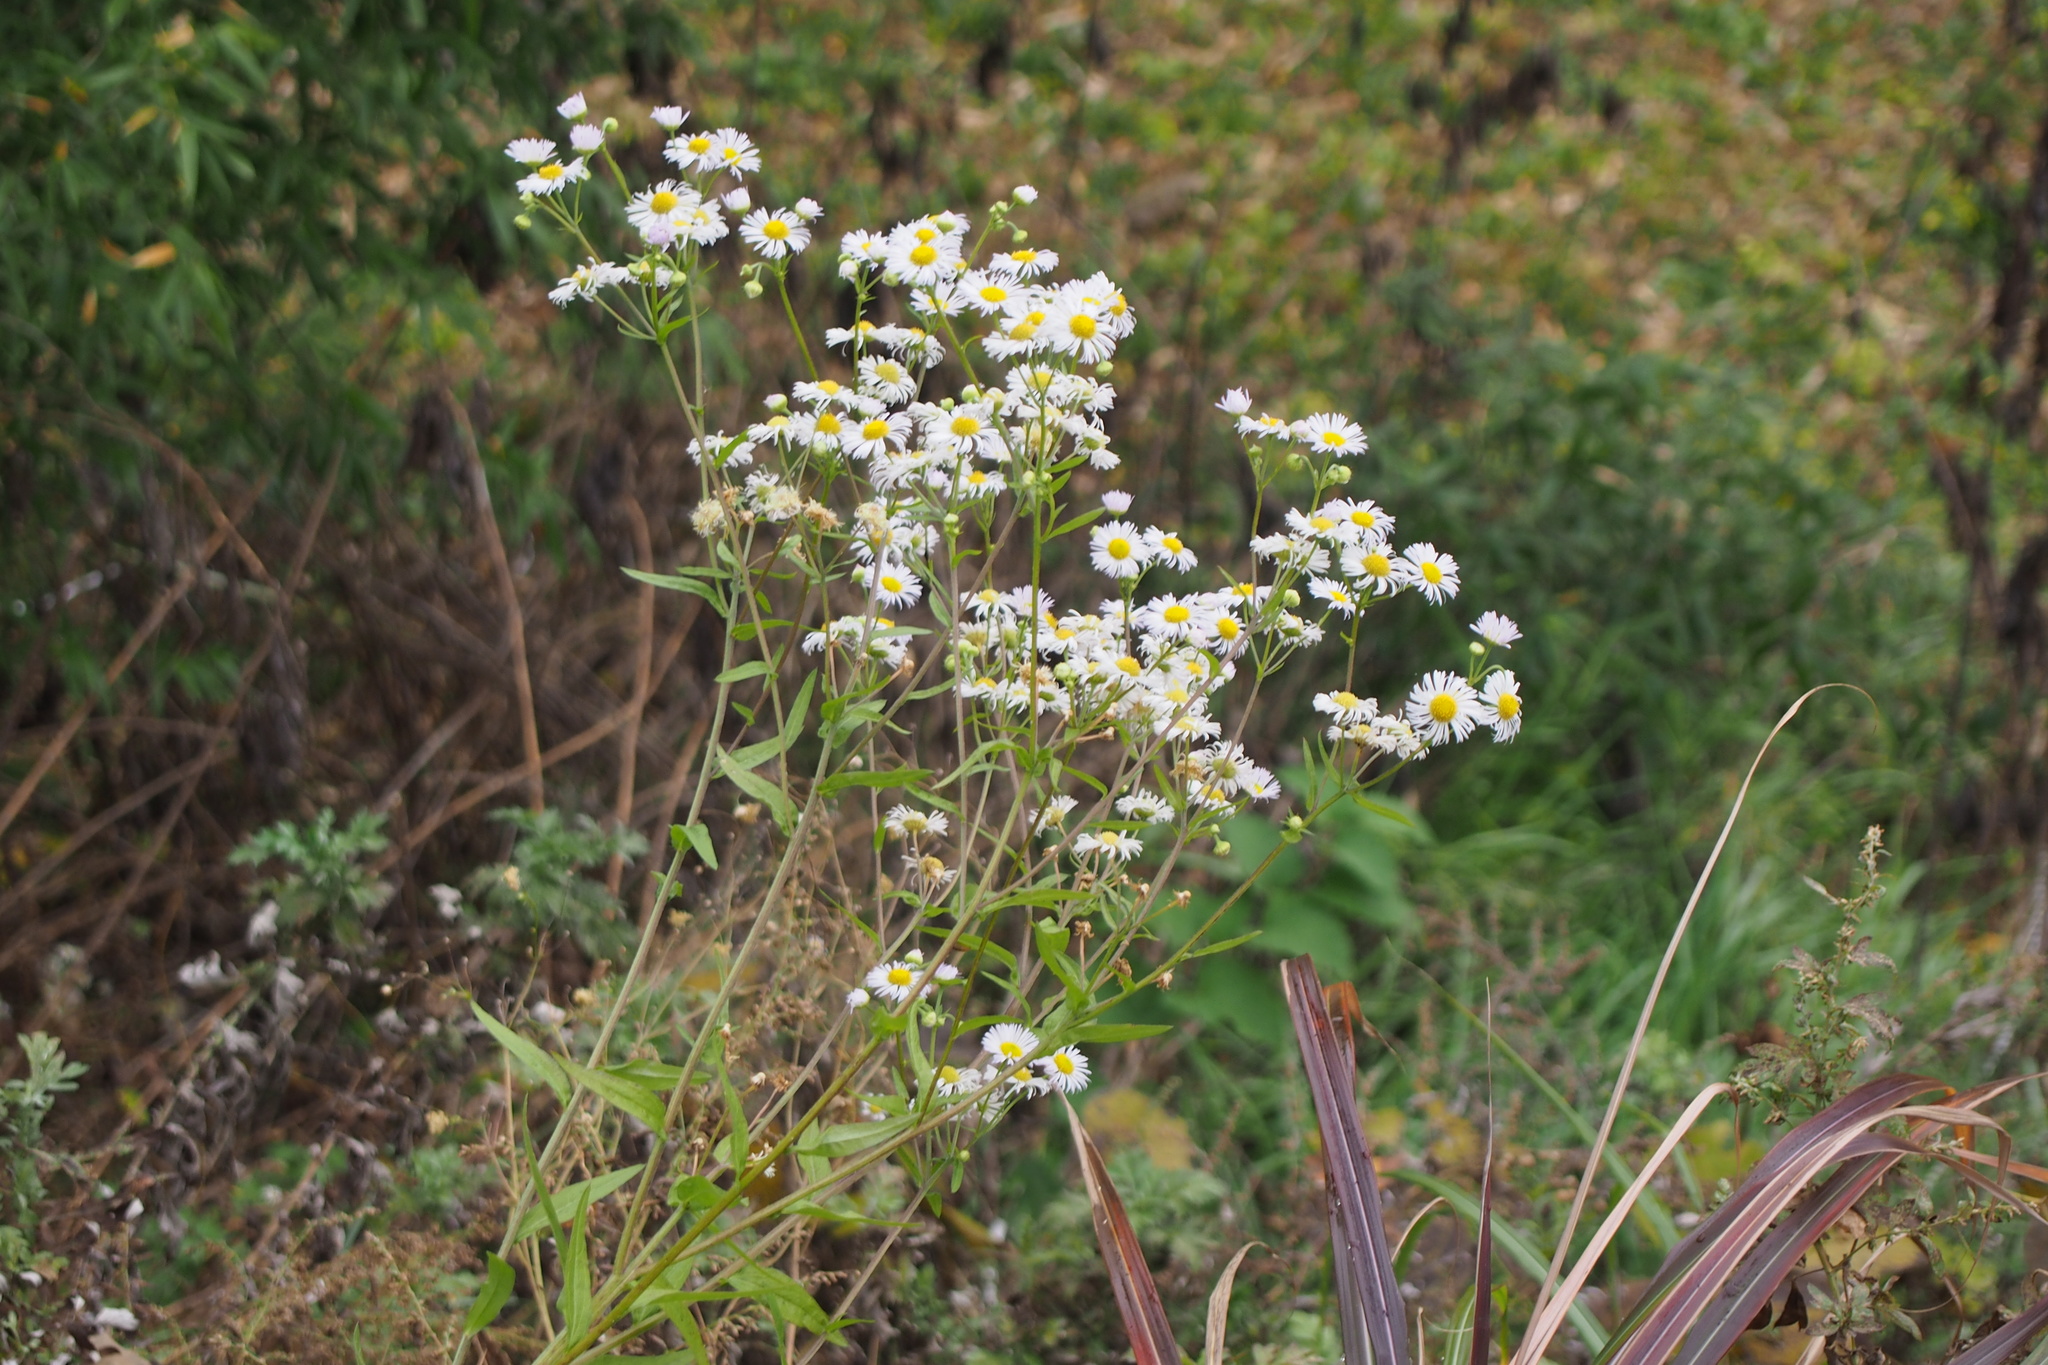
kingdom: Plantae
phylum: Tracheophyta
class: Magnoliopsida
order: Asterales
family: Asteraceae
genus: Erigeron
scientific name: Erigeron annuus
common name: Tall fleabane
